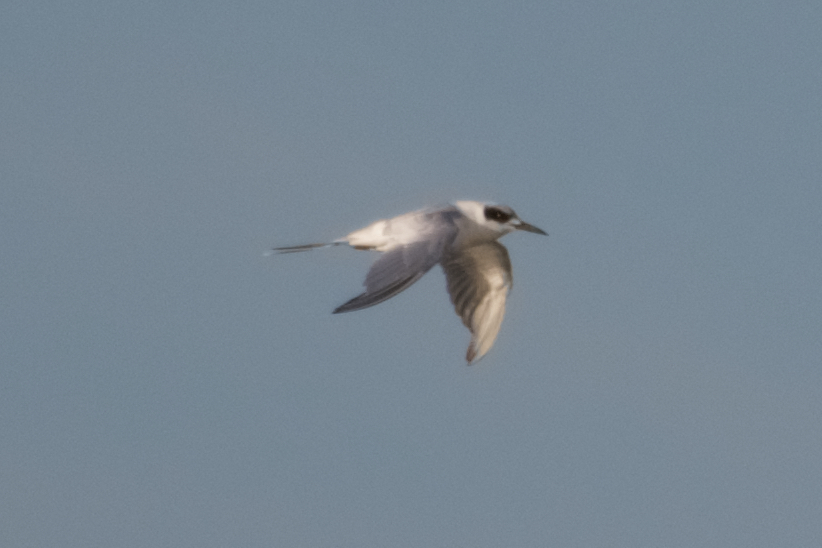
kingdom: Animalia
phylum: Chordata
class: Aves
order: Charadriiformes
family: Laridae
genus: Sterna
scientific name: Sterna forsteri
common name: Forster's tern
